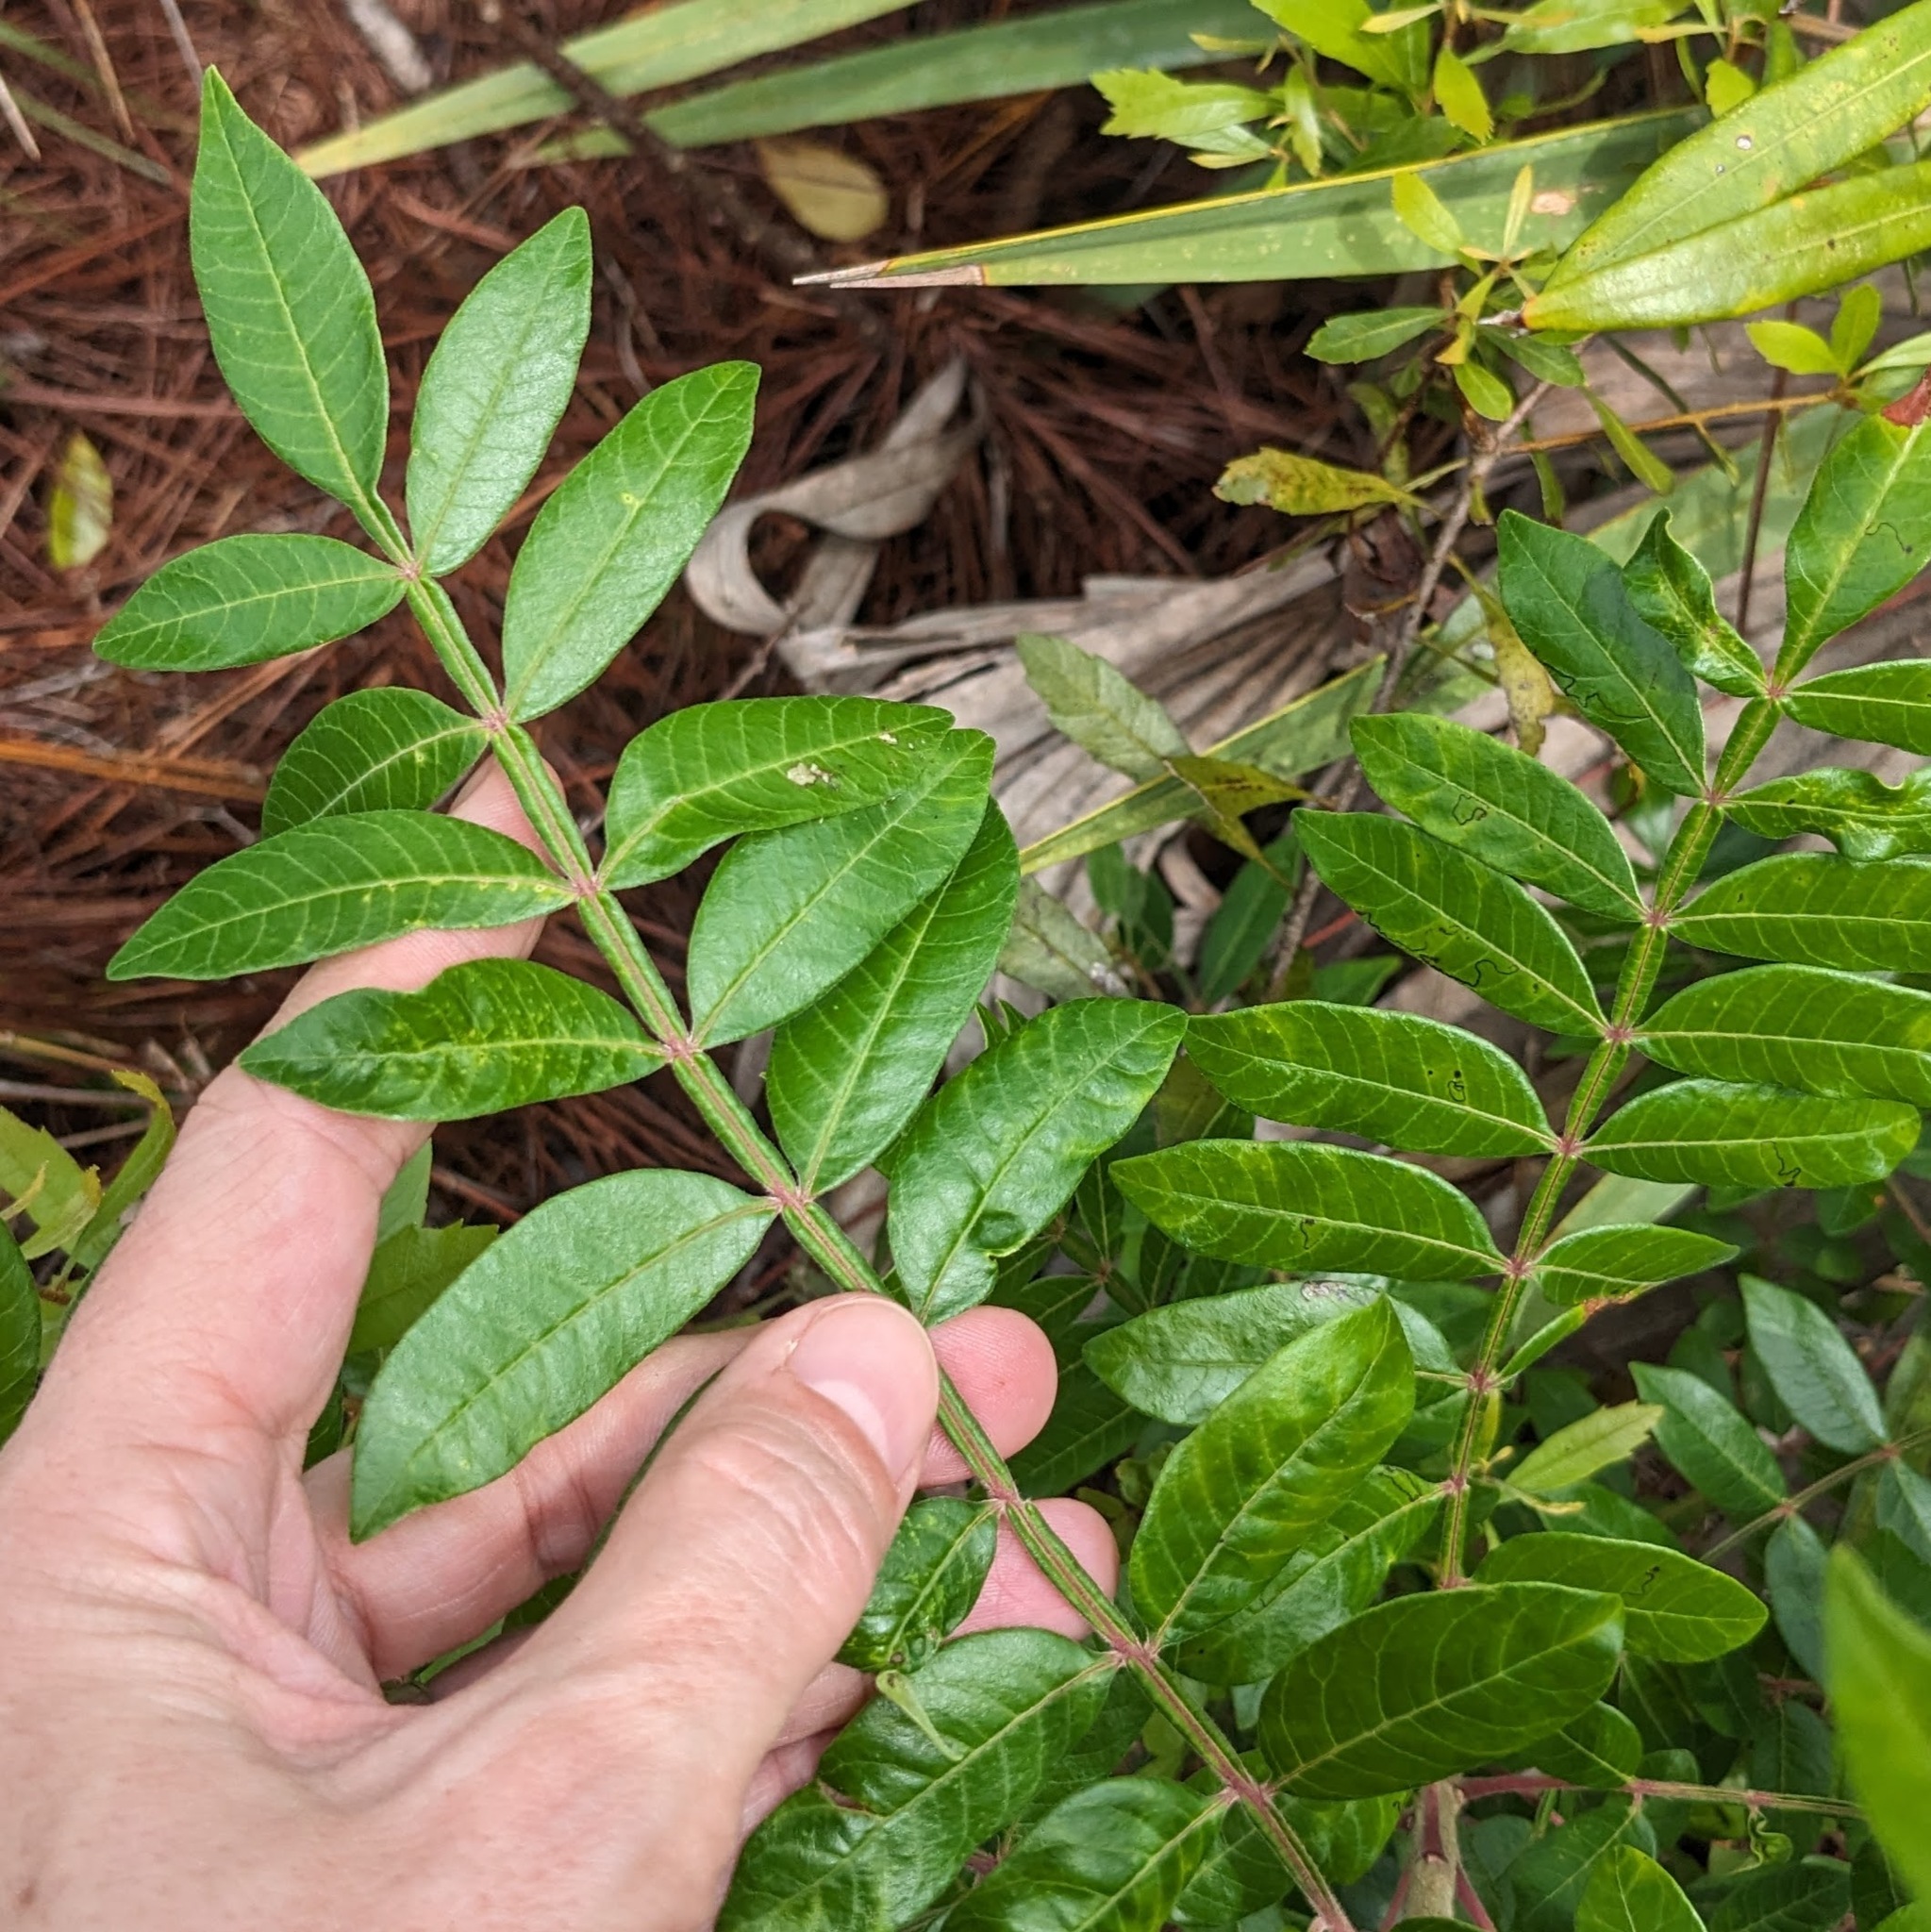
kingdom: Plantae
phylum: Tracheophyta
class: Magnoliopsida
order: Sapindales
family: Anacardiaceae
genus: Rhus
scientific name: Rhus copallina
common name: Shining sumac
